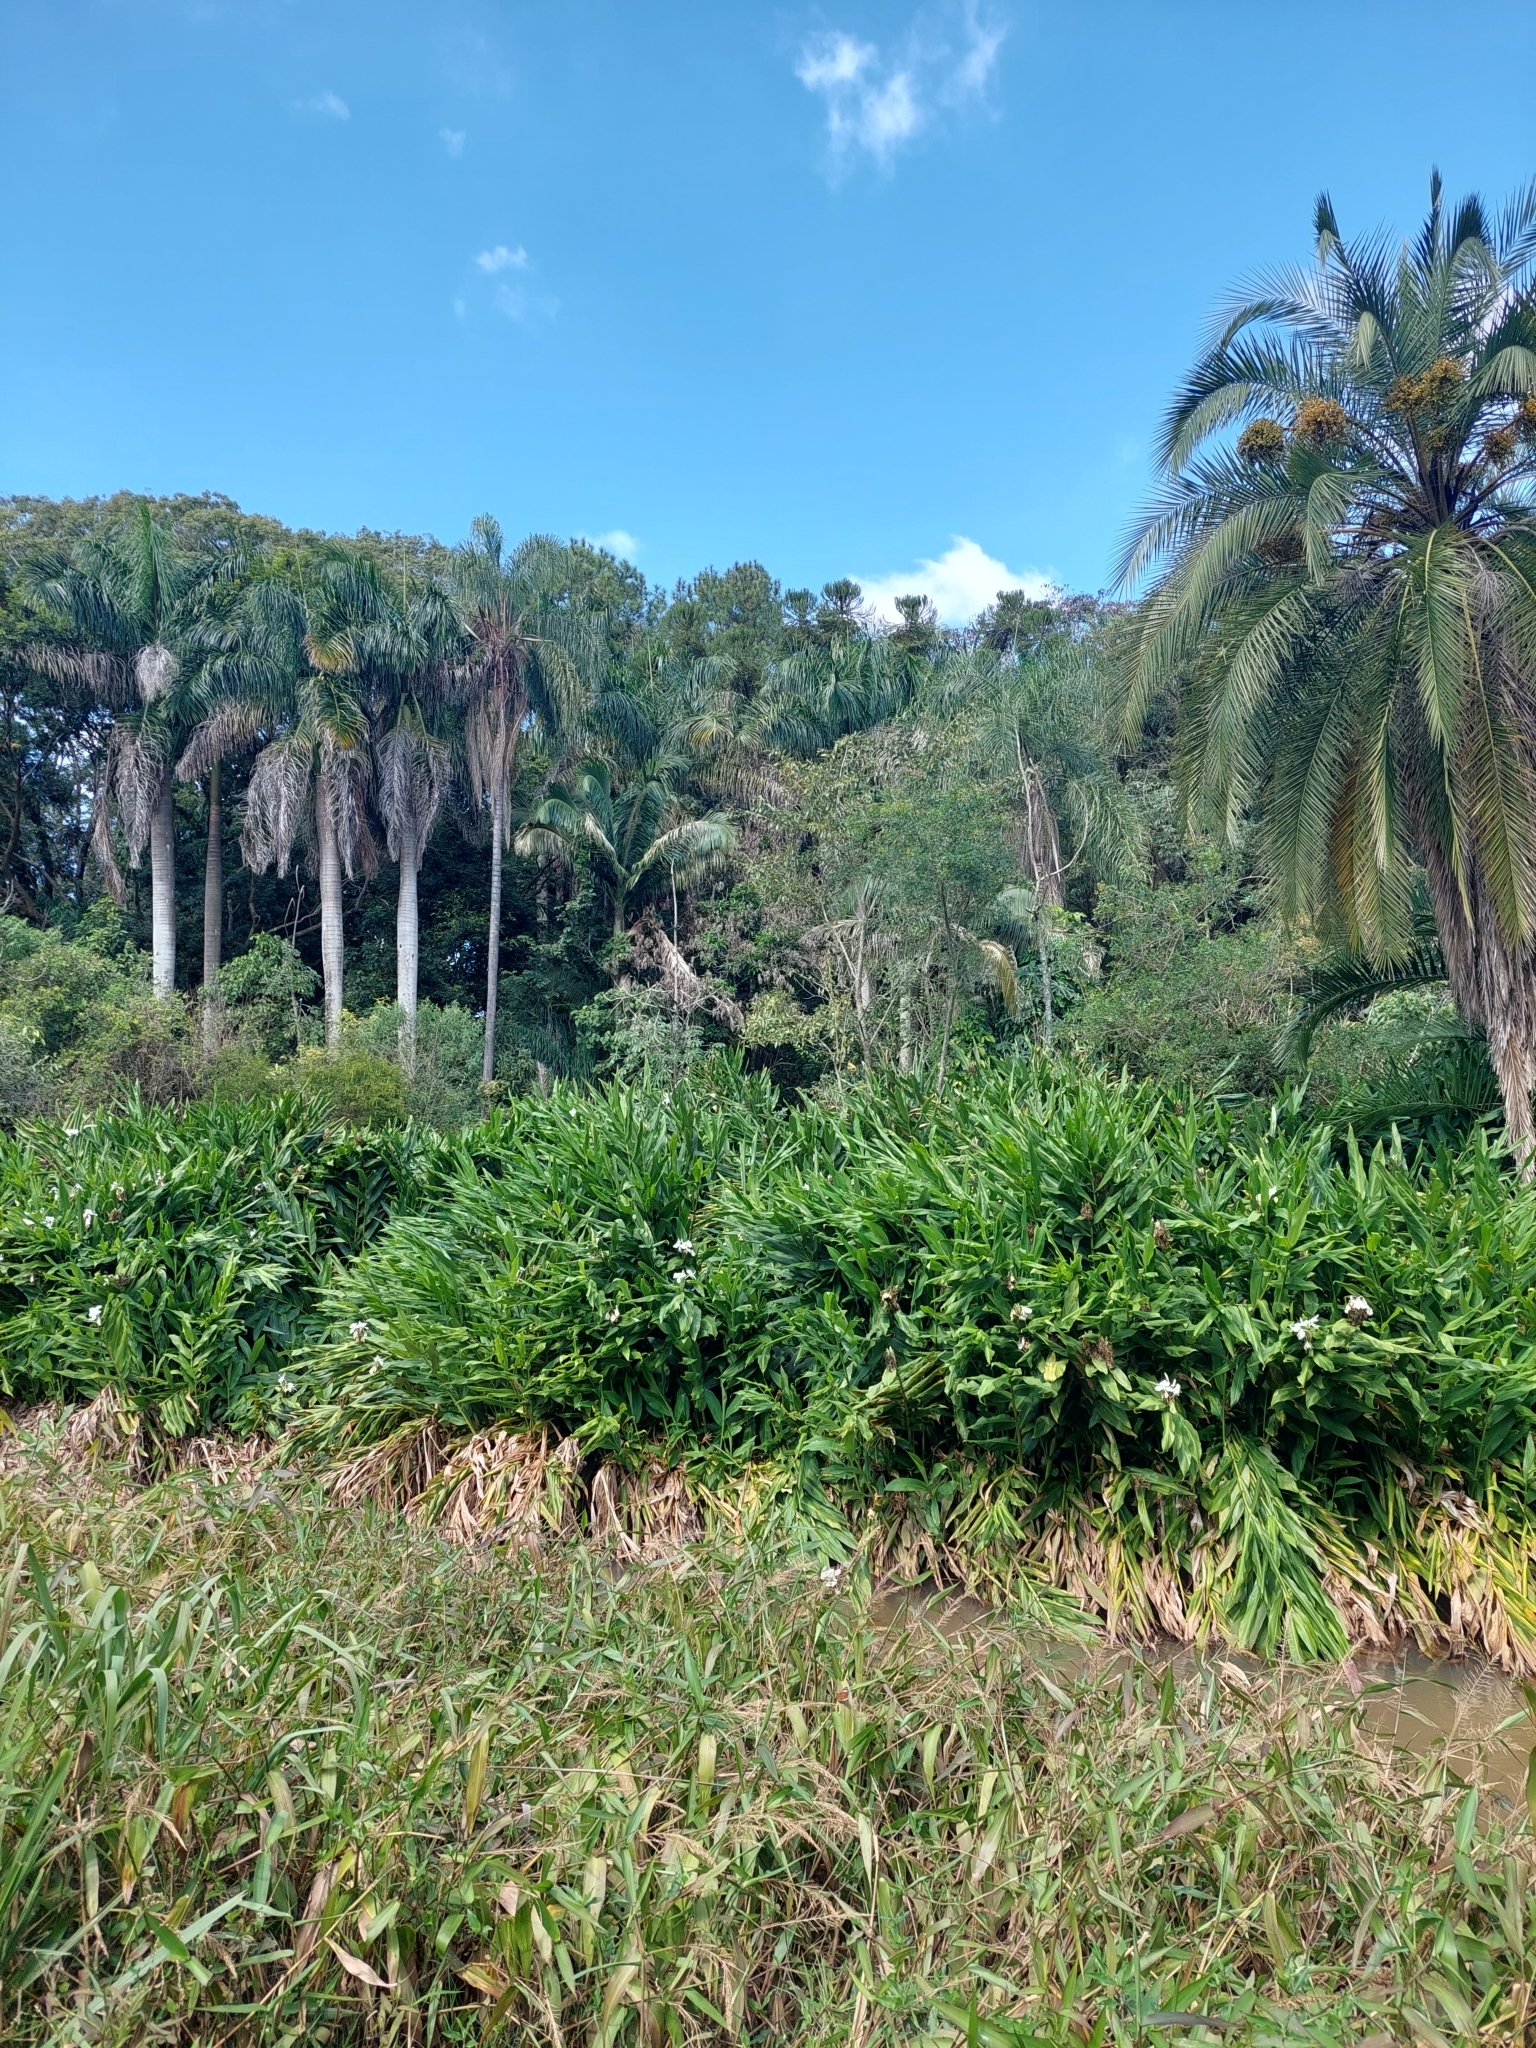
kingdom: Plantae
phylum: Tracheophyta
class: Liliopsida
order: Zingiberales
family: Zingiberaceae
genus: Hedychium
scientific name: Hedychium coronarium
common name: White garland-lily
